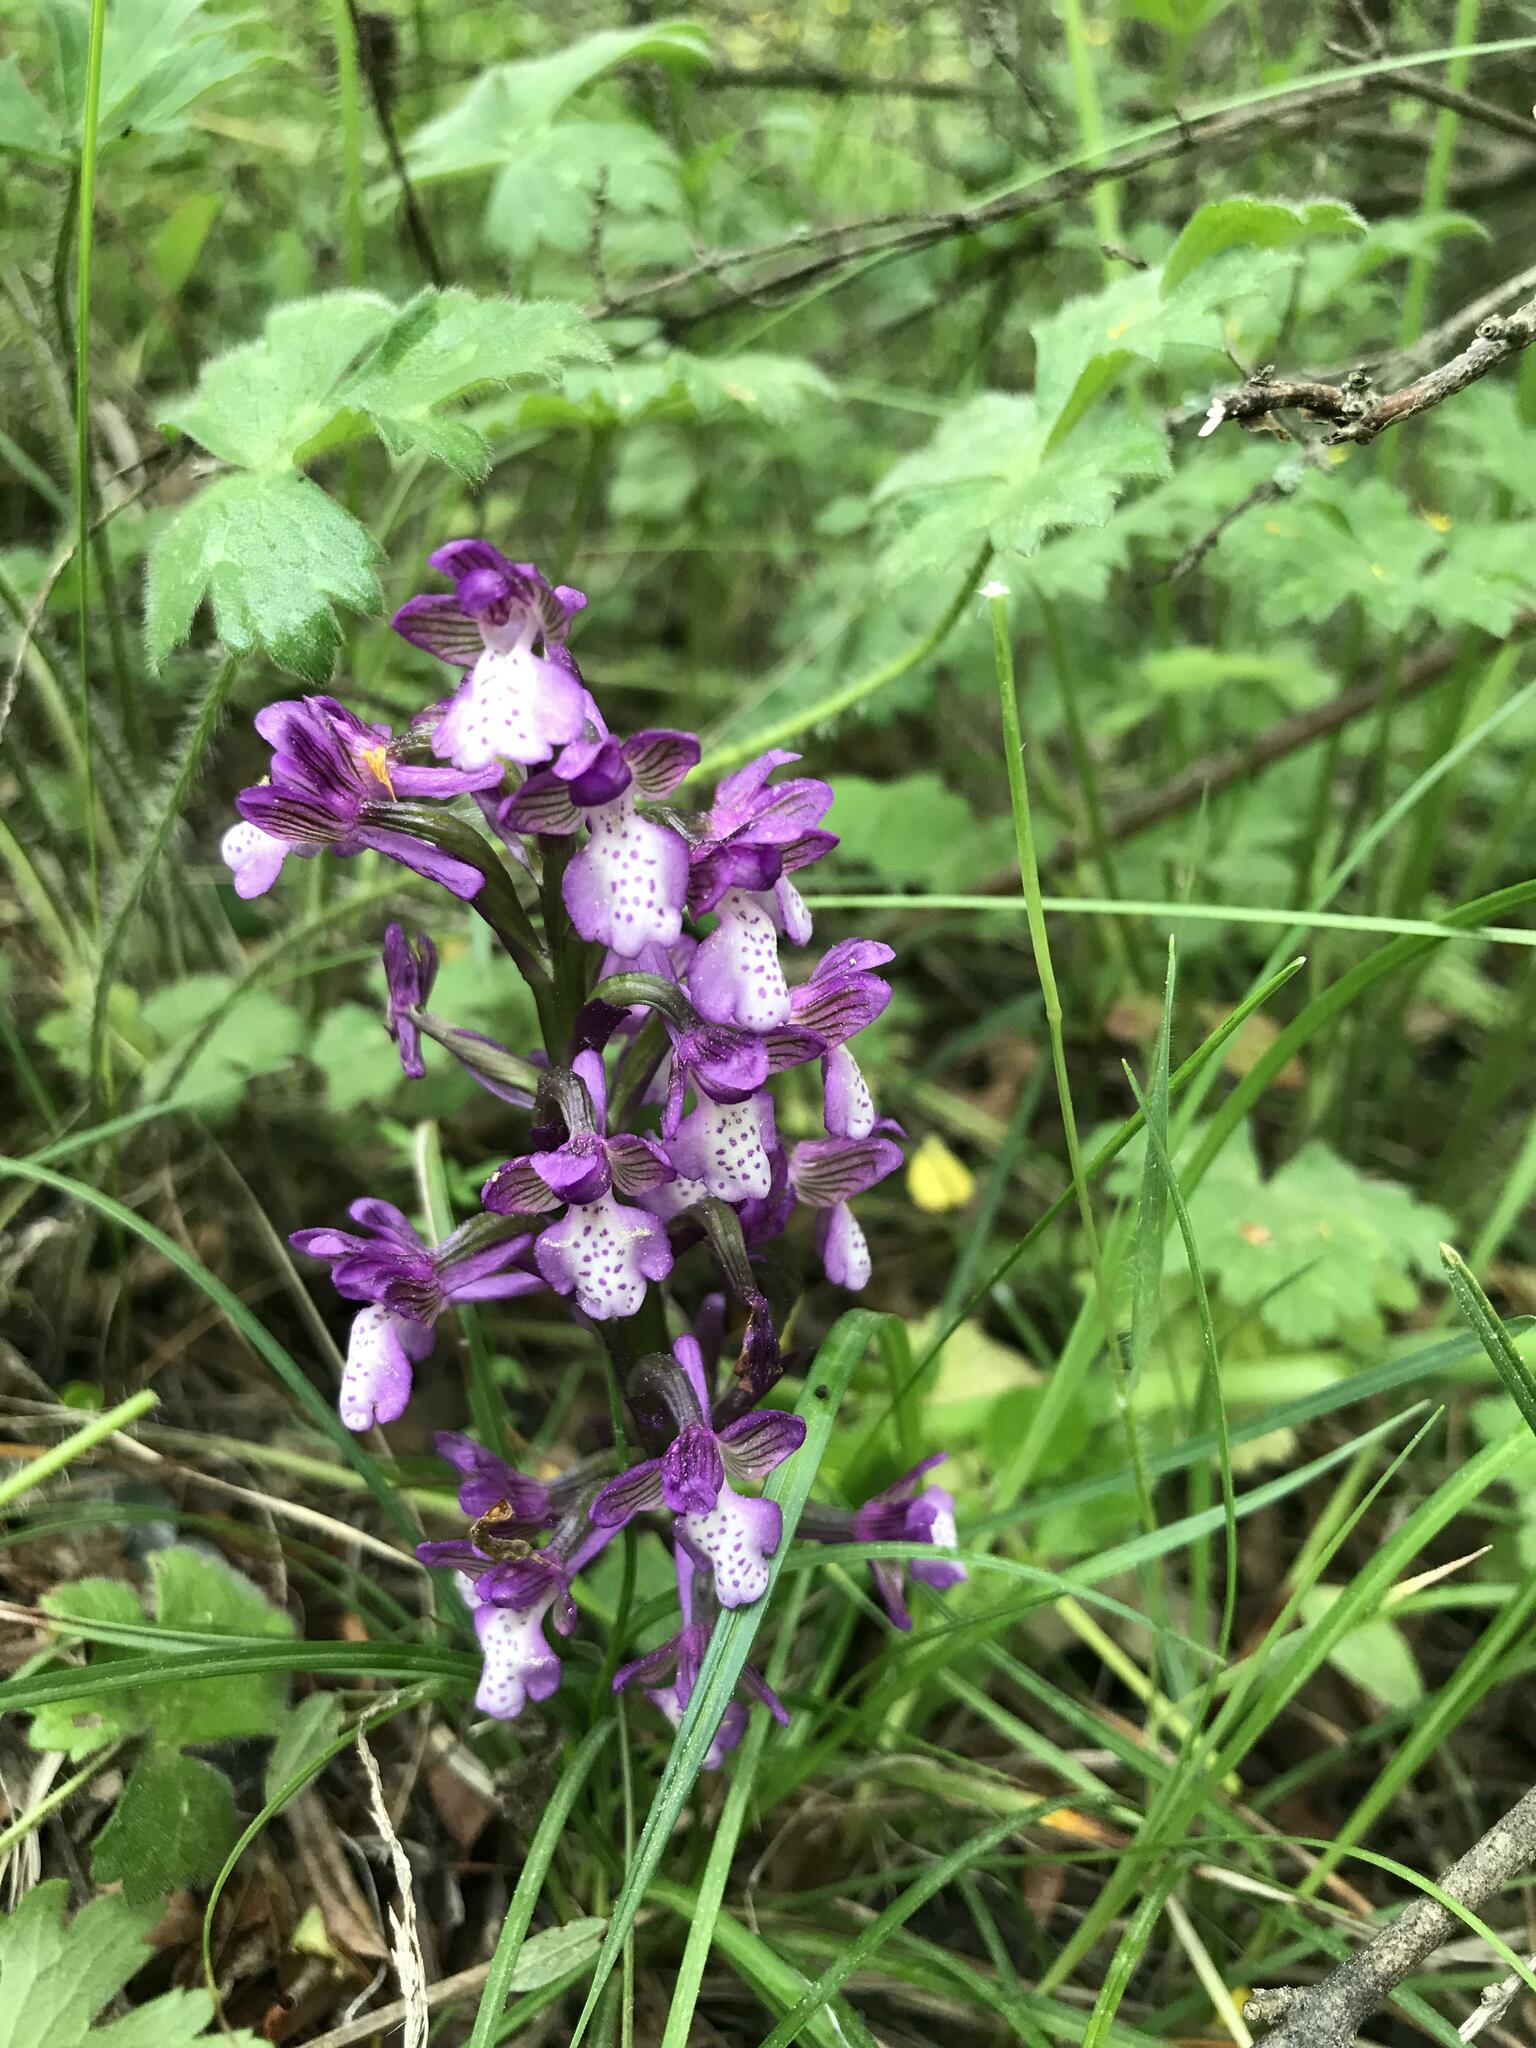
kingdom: Plantae
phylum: Tracheophyta
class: Liliopsida
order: Asparagales
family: Orchidaceae
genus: Anacamptis
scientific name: Anacamptis morio
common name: Green-winged orchid
